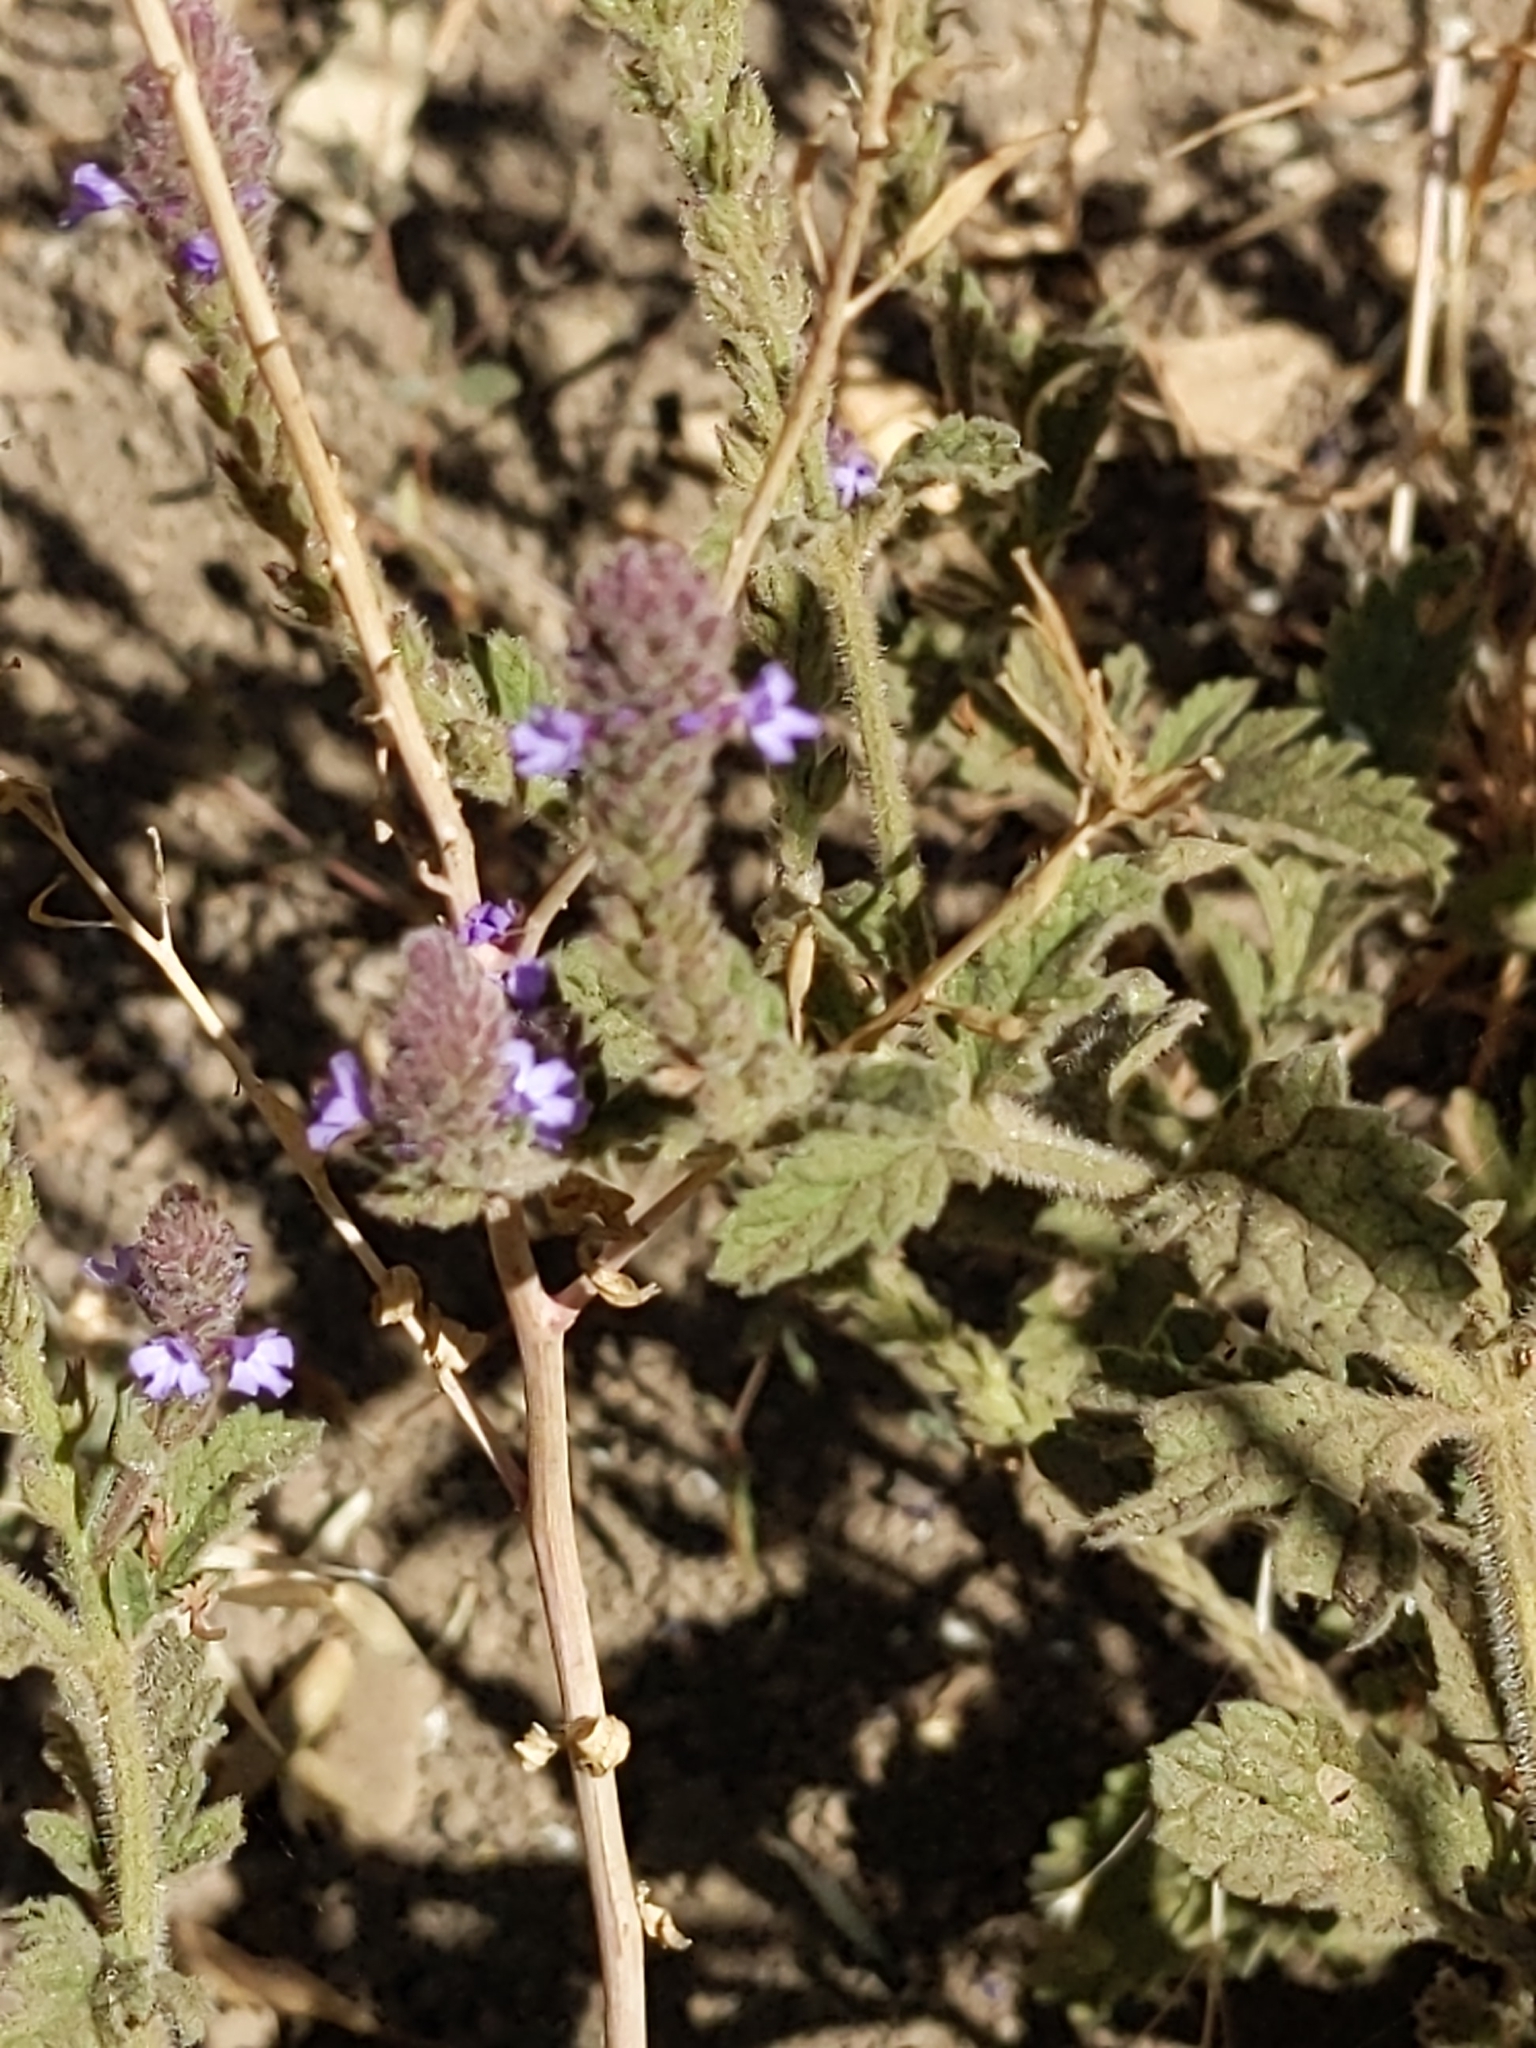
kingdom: Plantae
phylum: Tracheophyta
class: Magnoliopsida
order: Lamiales
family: Verbenaceae
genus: Verbena
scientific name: Verbena lasiostachys
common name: Vervain
